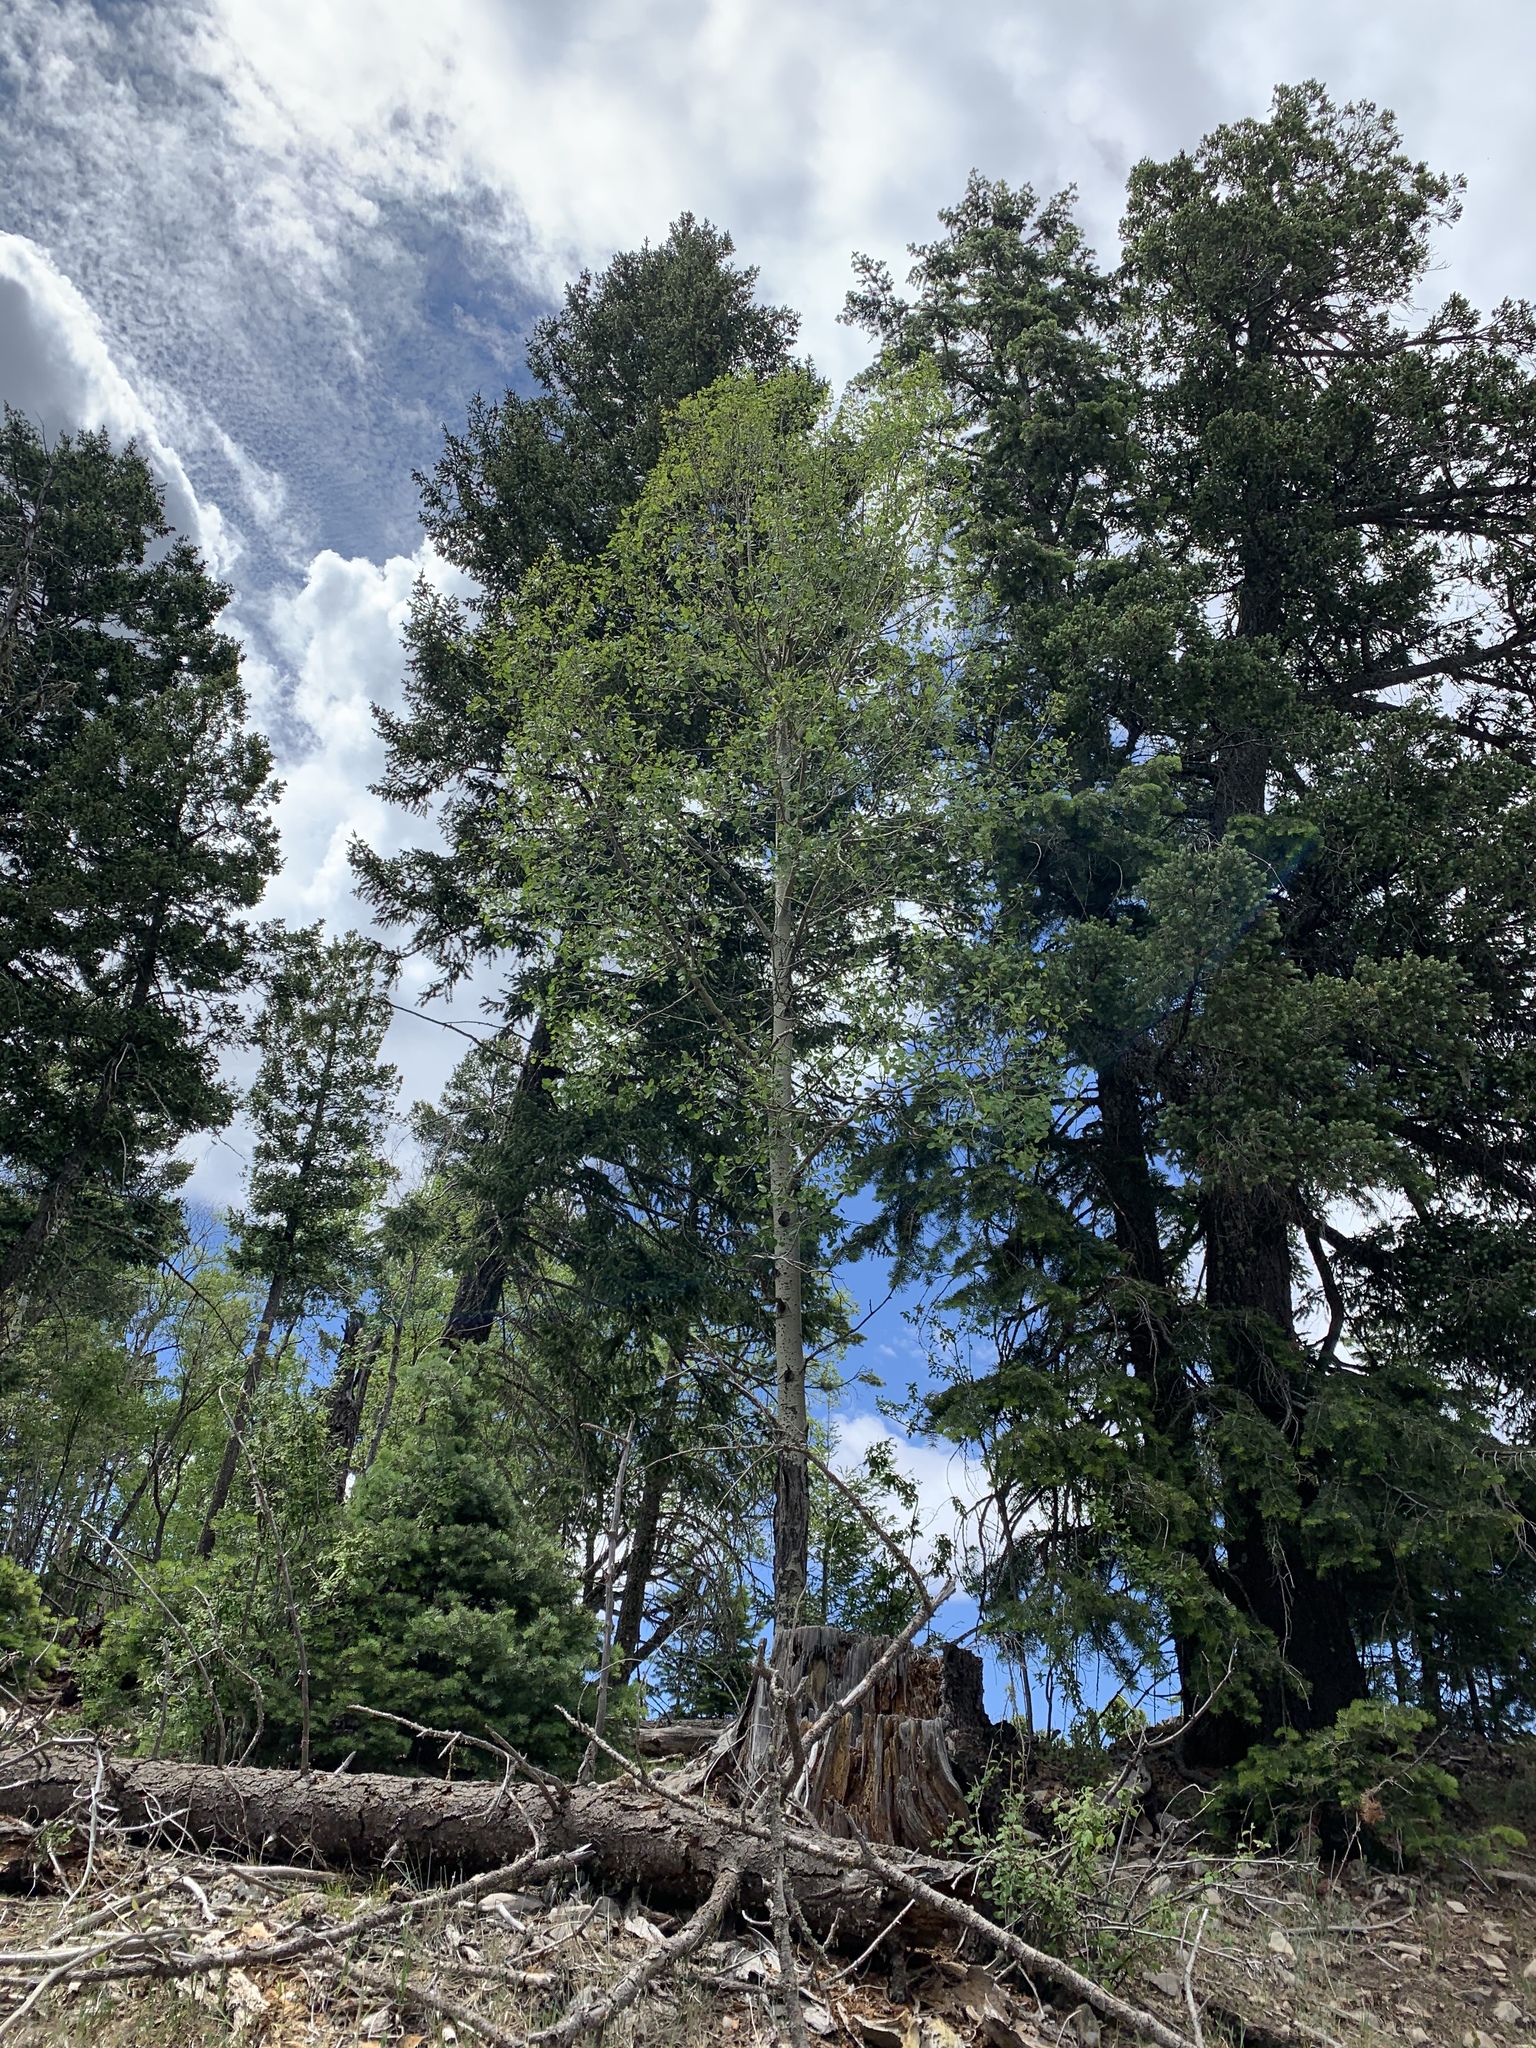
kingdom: Plantae
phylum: Tracheophyta
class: Magnoliopsida
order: Malpighiales
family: Salicaceae
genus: Populus
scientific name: Populus tremuloides
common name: Quaking aspen
